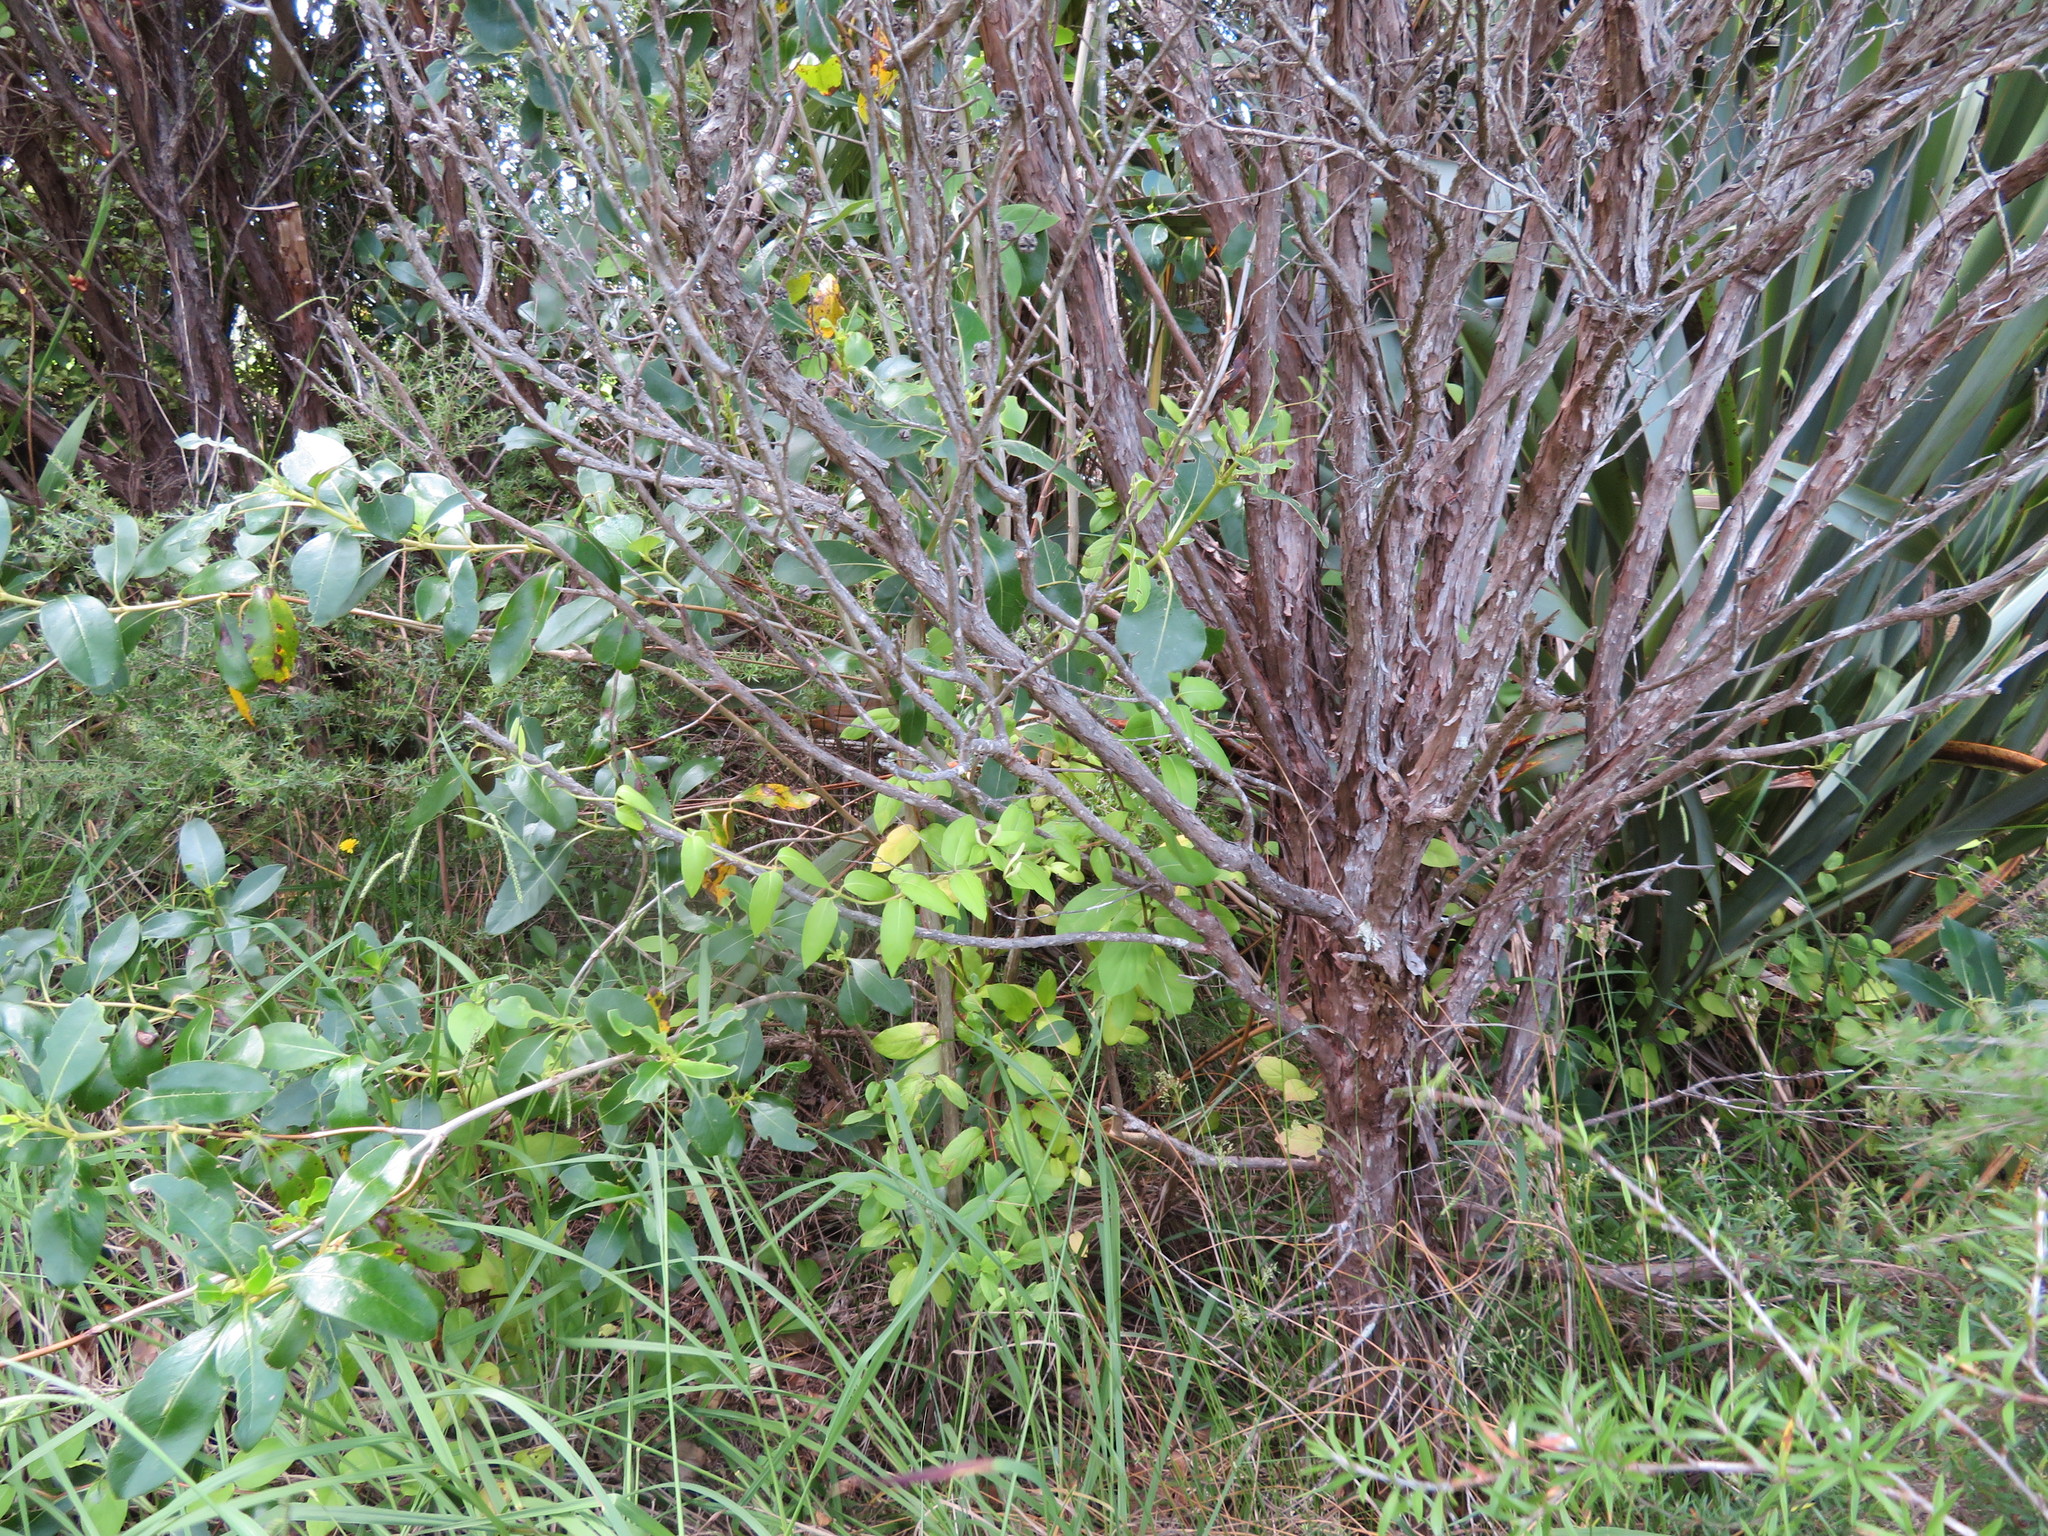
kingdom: Plantae
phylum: Tracheophyta
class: Magnoliopsida
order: Myrtales
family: Myrtaceae
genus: Leptospermum
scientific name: Leptospermum scoparium
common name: Broom tea-tree
